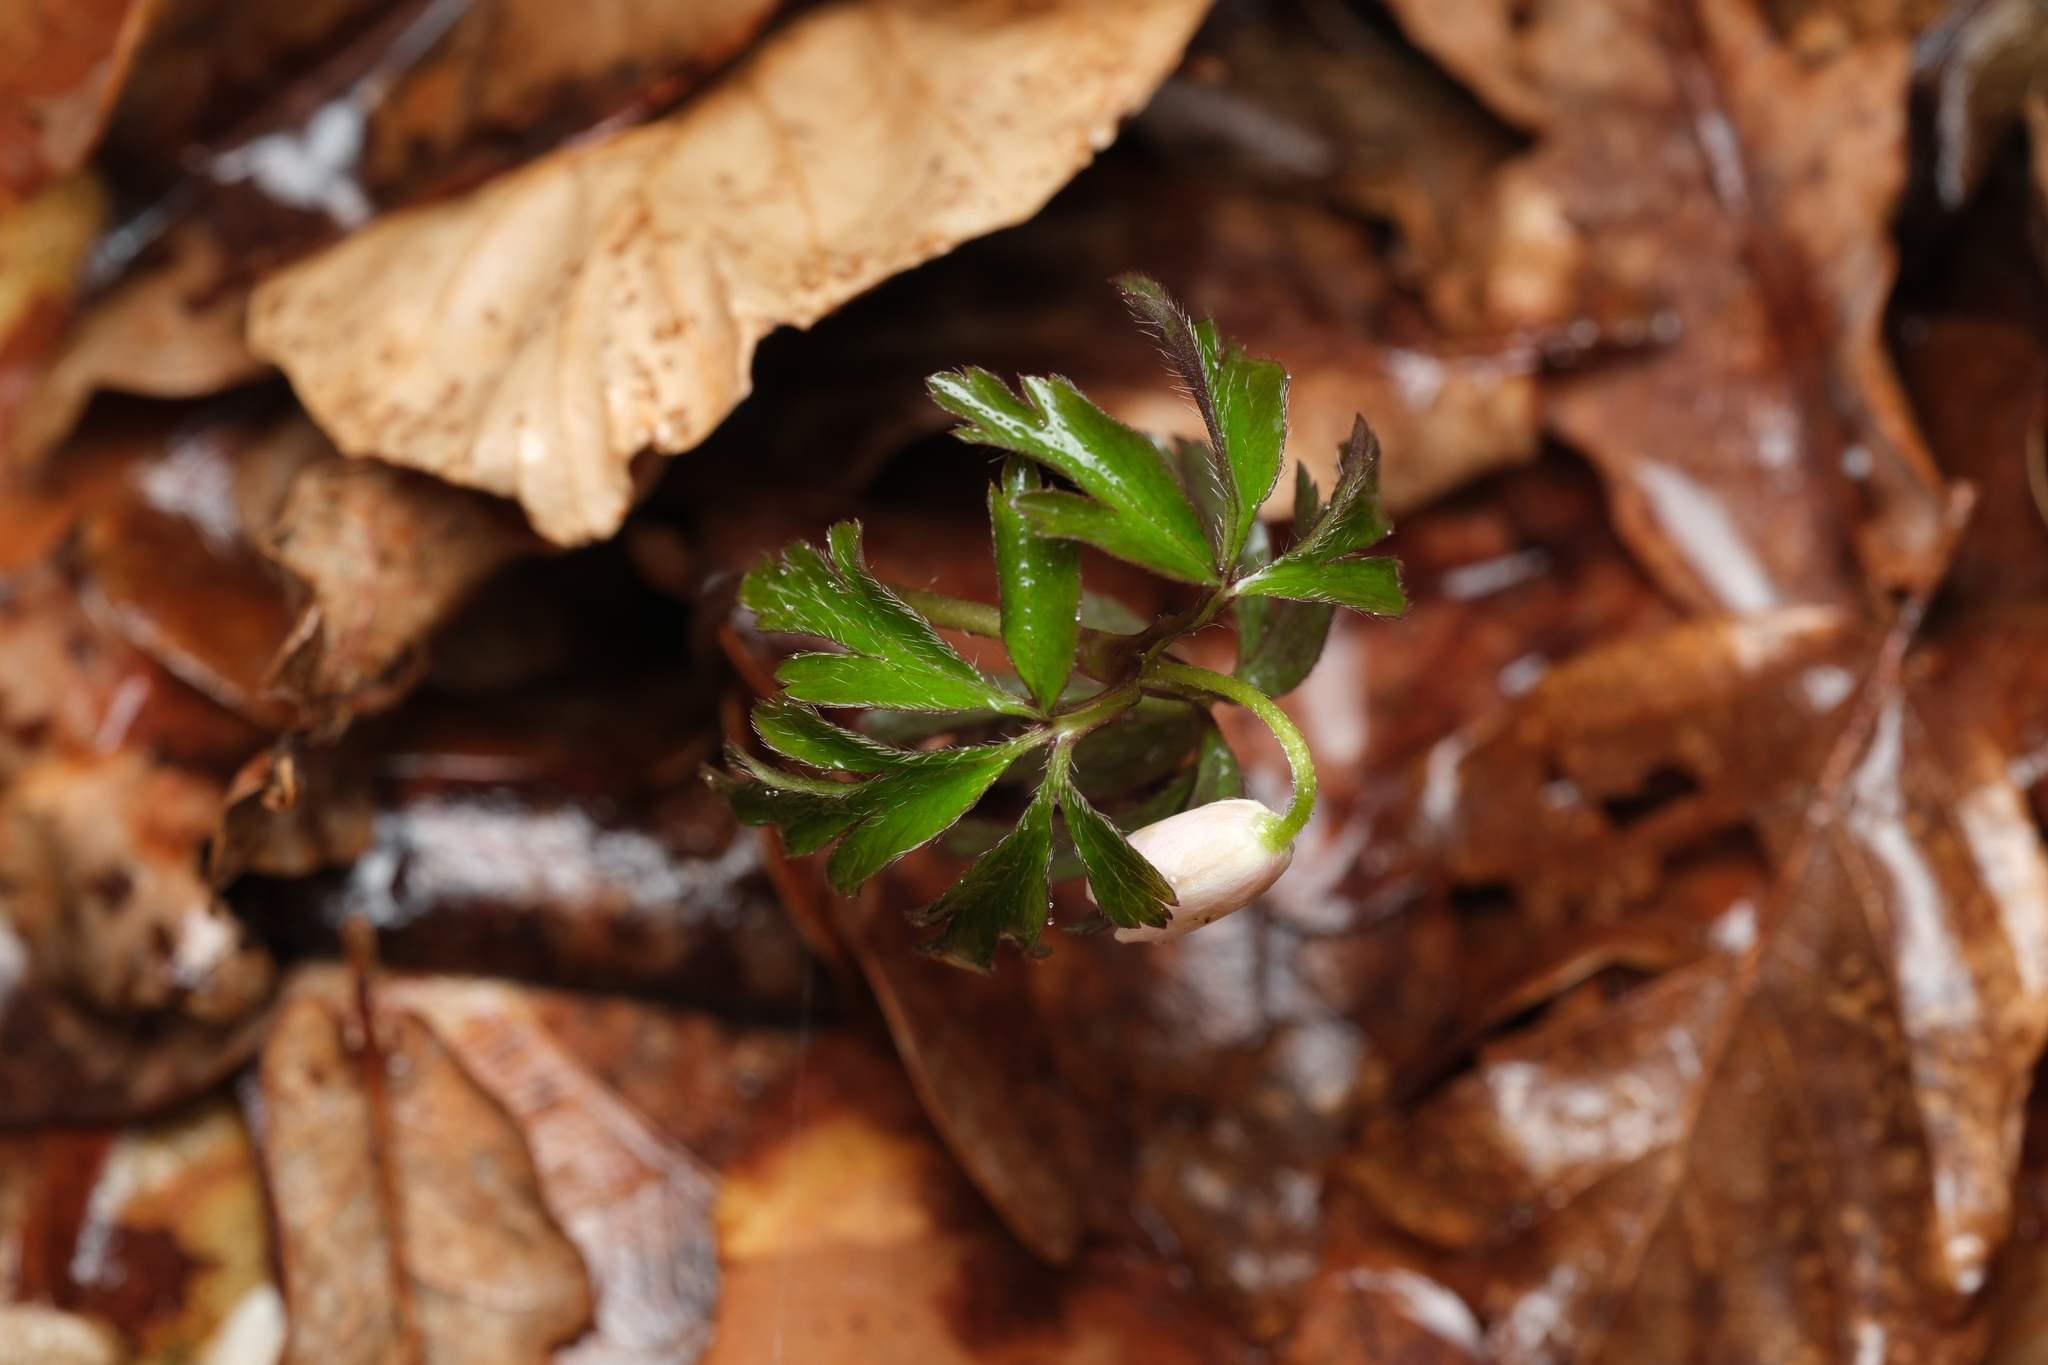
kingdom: Plantae
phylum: Tracheophyta
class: Magnoliopsida
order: Ranunculales
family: Ranunculaceae
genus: Anemone
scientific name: Anemone nemorosa
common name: Wood anemone
